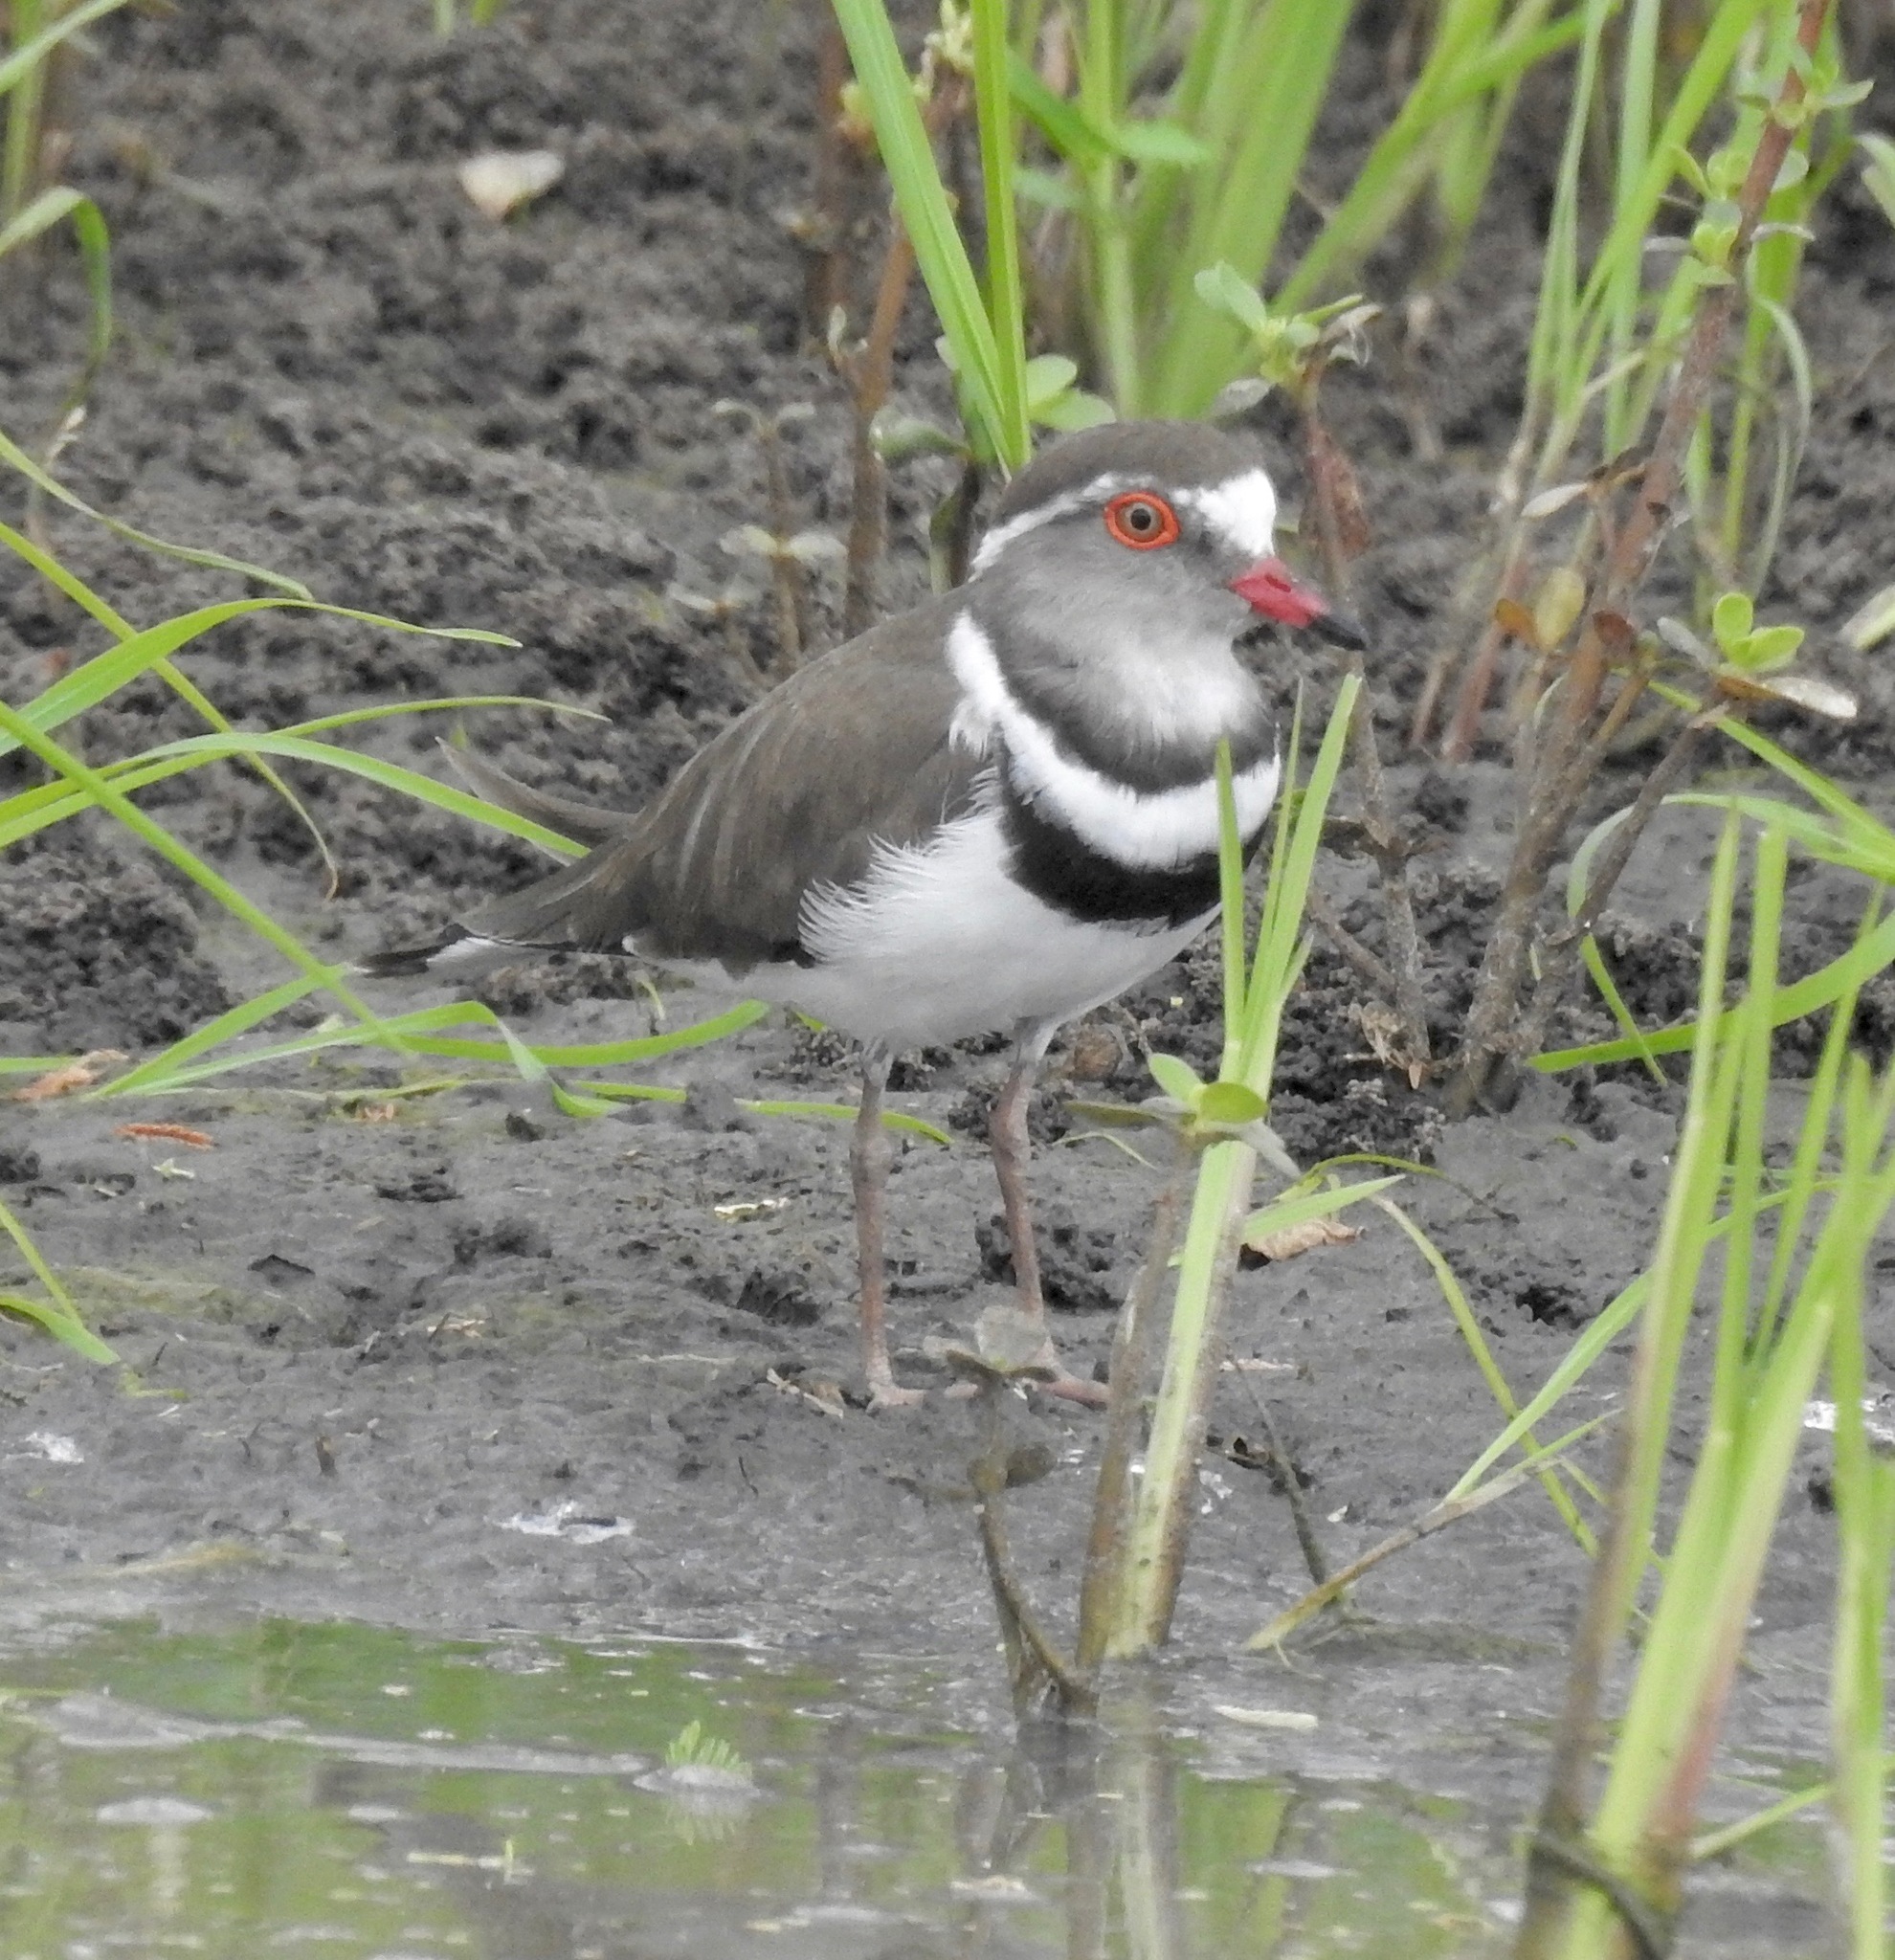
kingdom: Animalia
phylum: Chordata
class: Aves
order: Charadriiformes
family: Charadriidae
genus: Charadrius
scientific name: Charadrius tricollaris
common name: Three-banded plover
